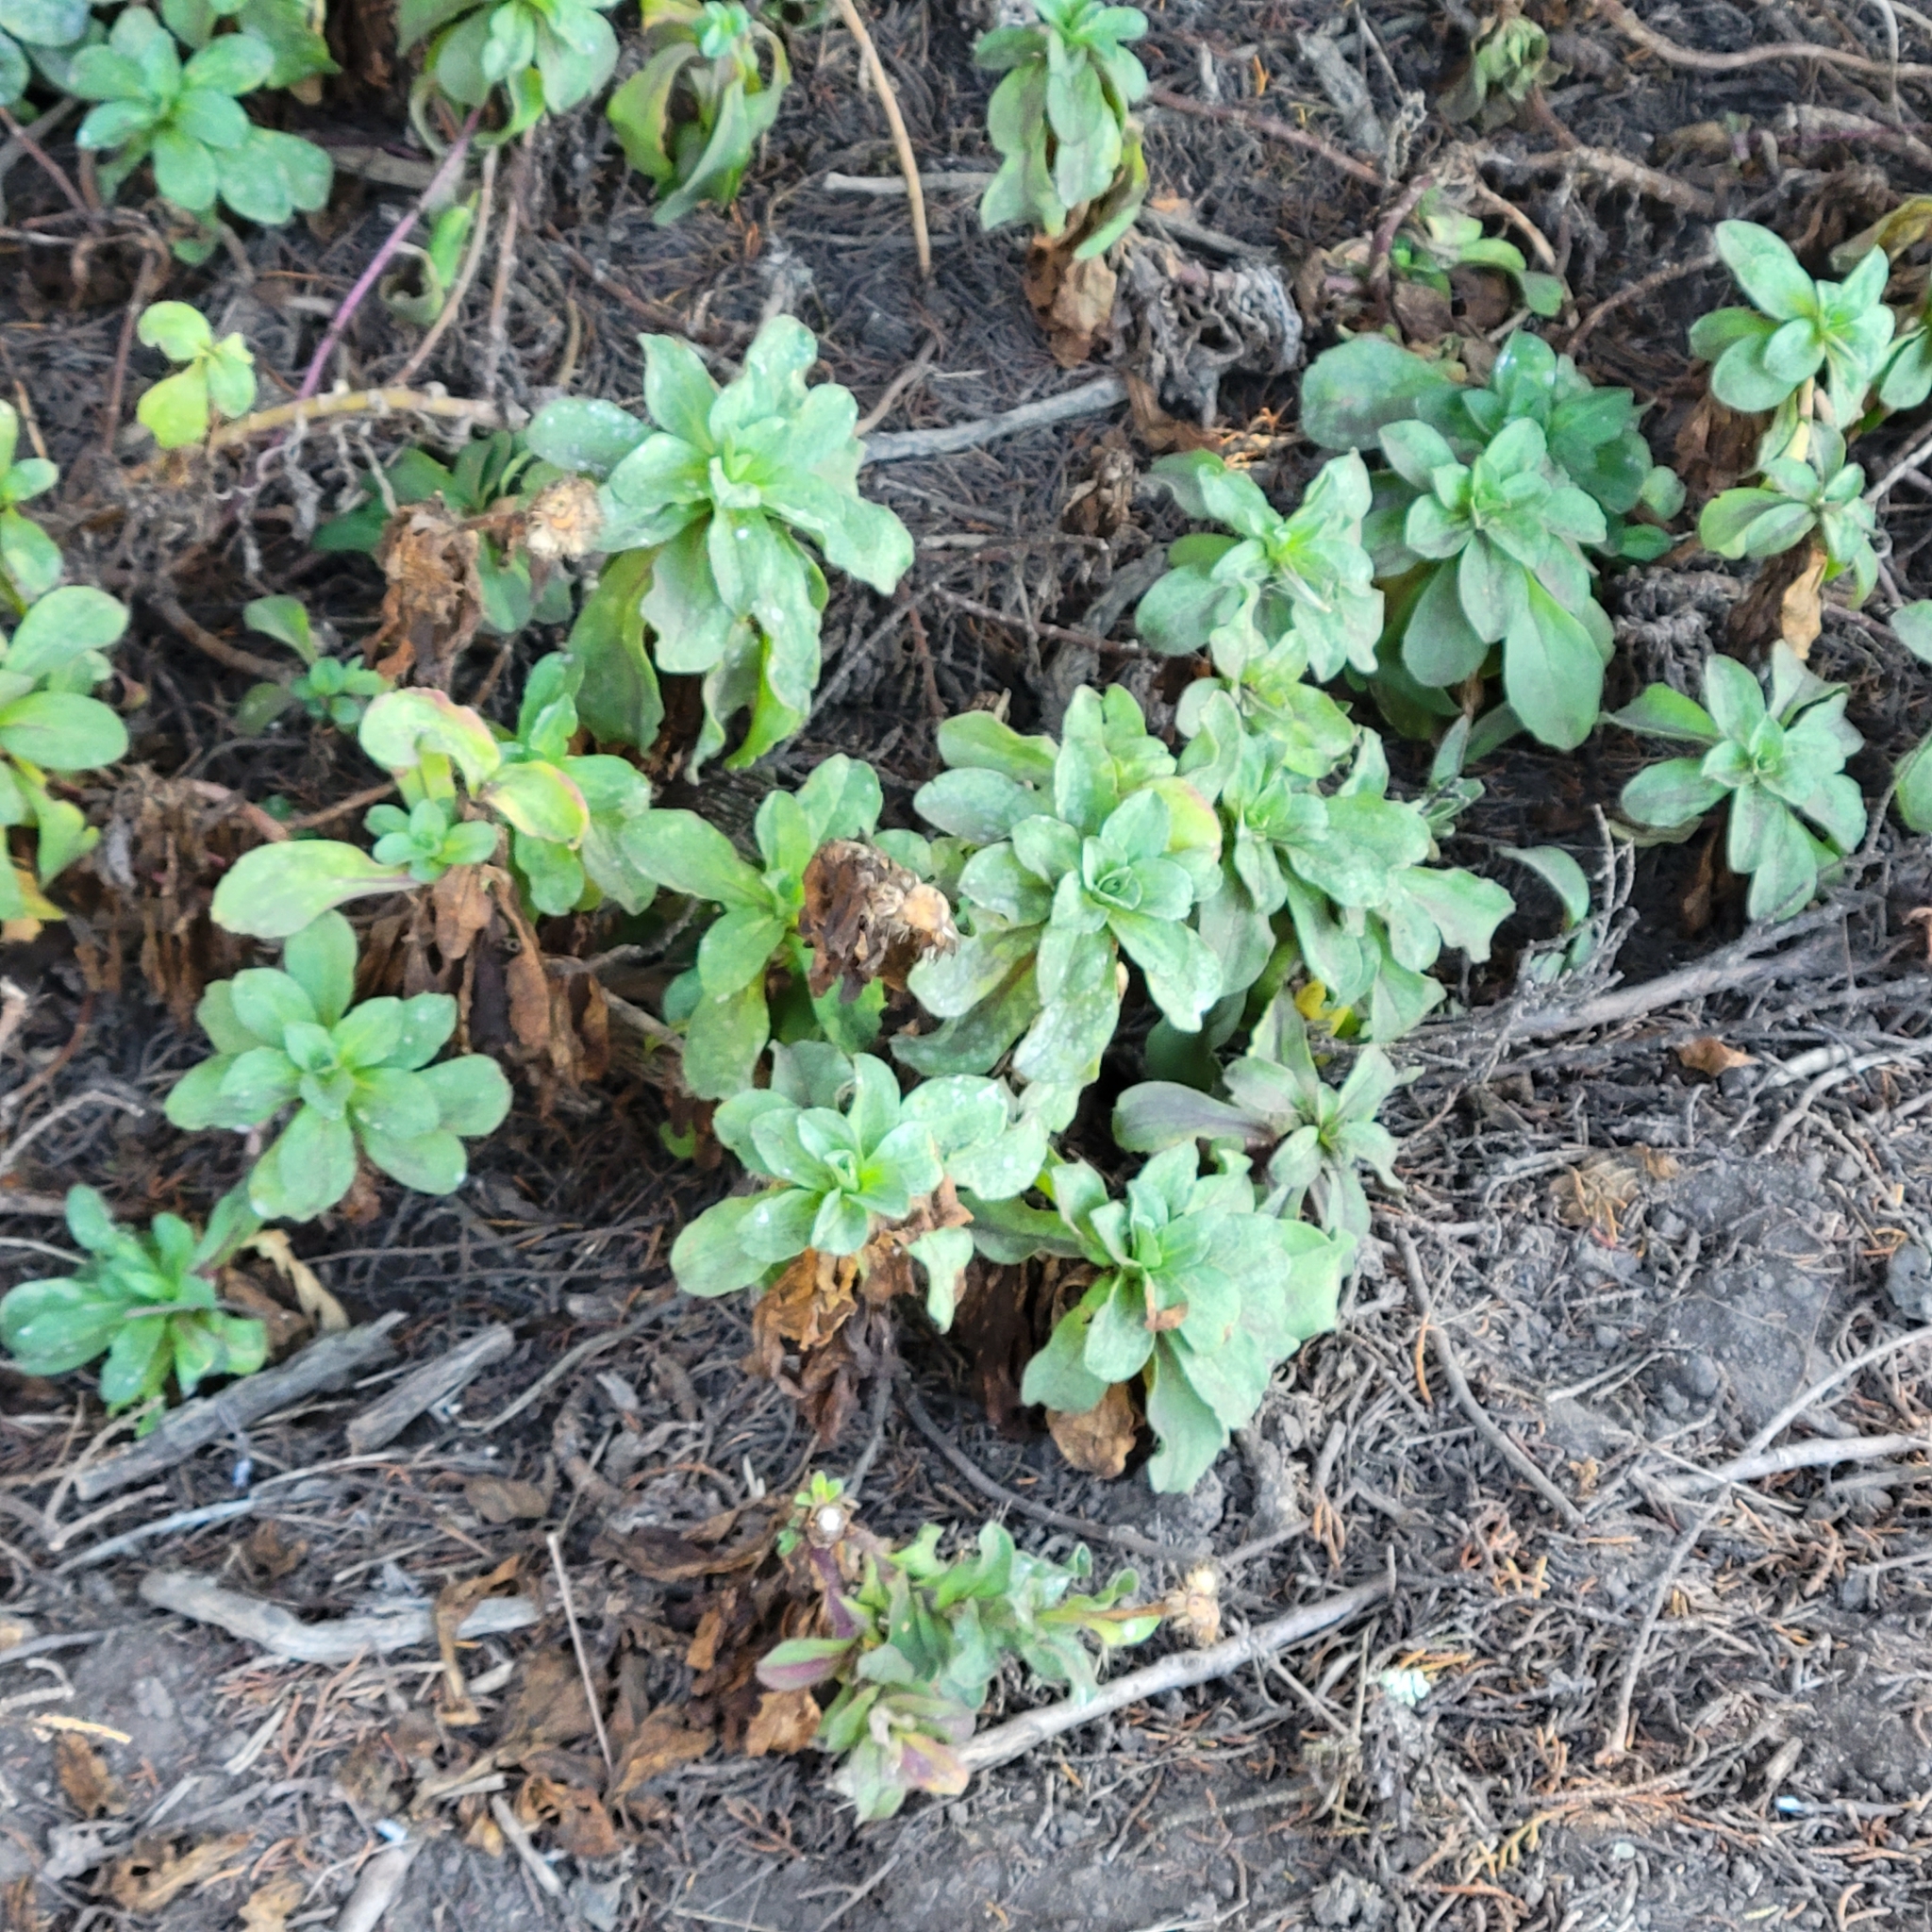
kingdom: Plantae
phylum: Tracheophyta
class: Magnoliopsida
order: Asterales
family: Asteraceae
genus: Erigeron
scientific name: Erigeron glaucus
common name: Seaside daisy
